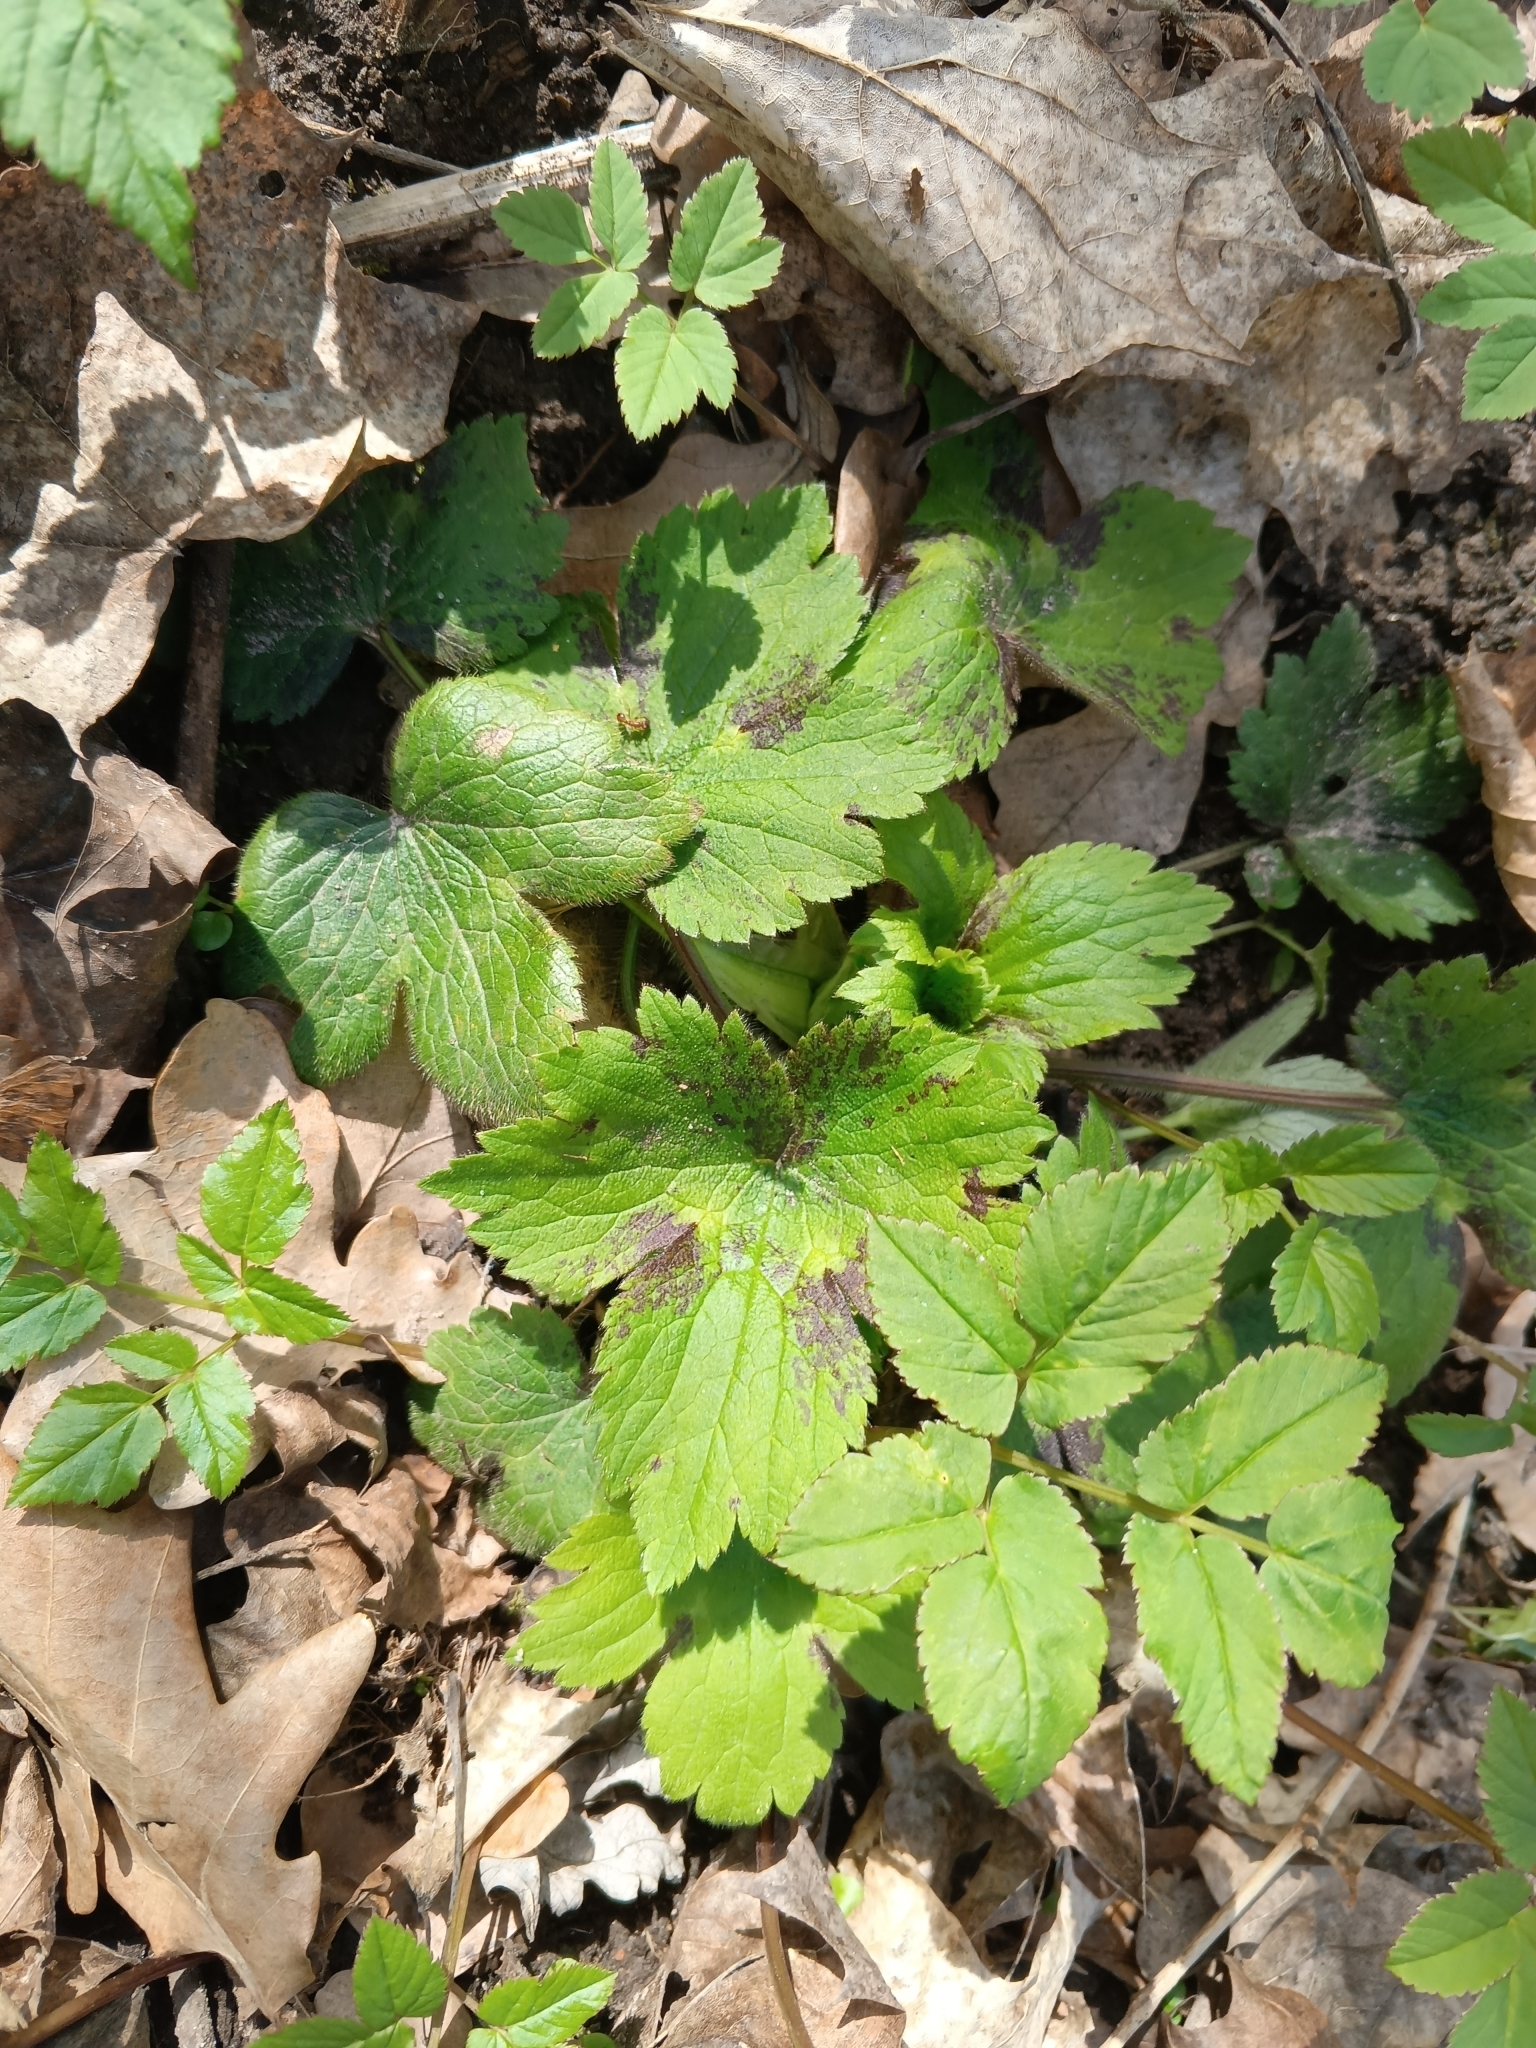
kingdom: Plantae
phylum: Tracheophyta
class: Magnoliopsida
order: Ranunculales
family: Ranunculaceae
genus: Ranunculus
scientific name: Ranunculus lanuginosus
